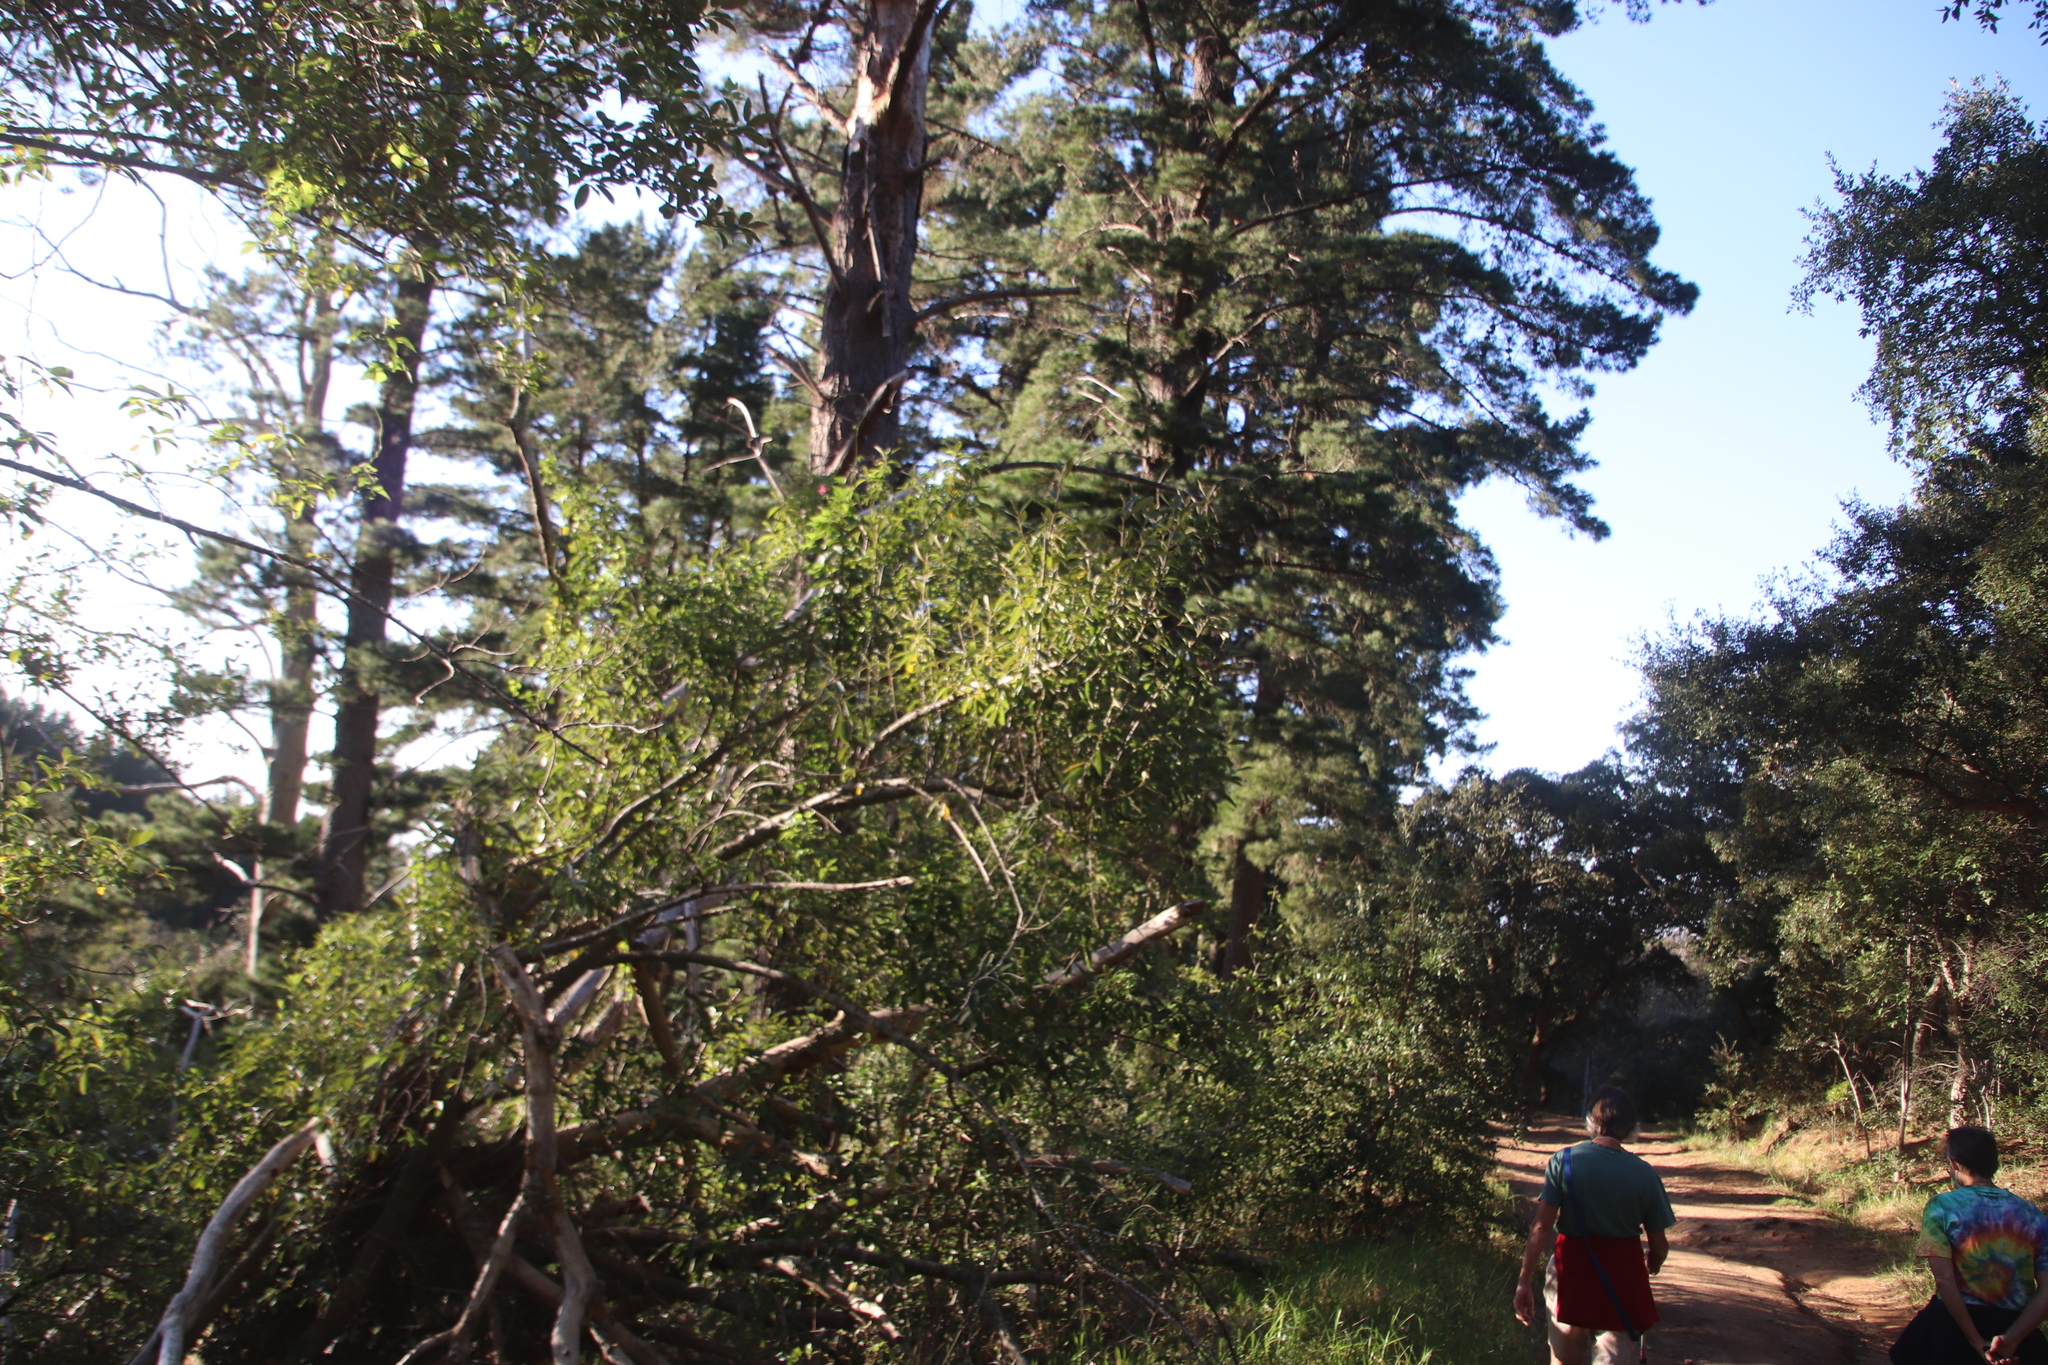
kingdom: Plantae
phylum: Tracheophyta
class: Magnoliopsida
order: Malpighiales
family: Achariaceae
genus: Kiggelaria
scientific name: Kiggelaria africana
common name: Wild peach
